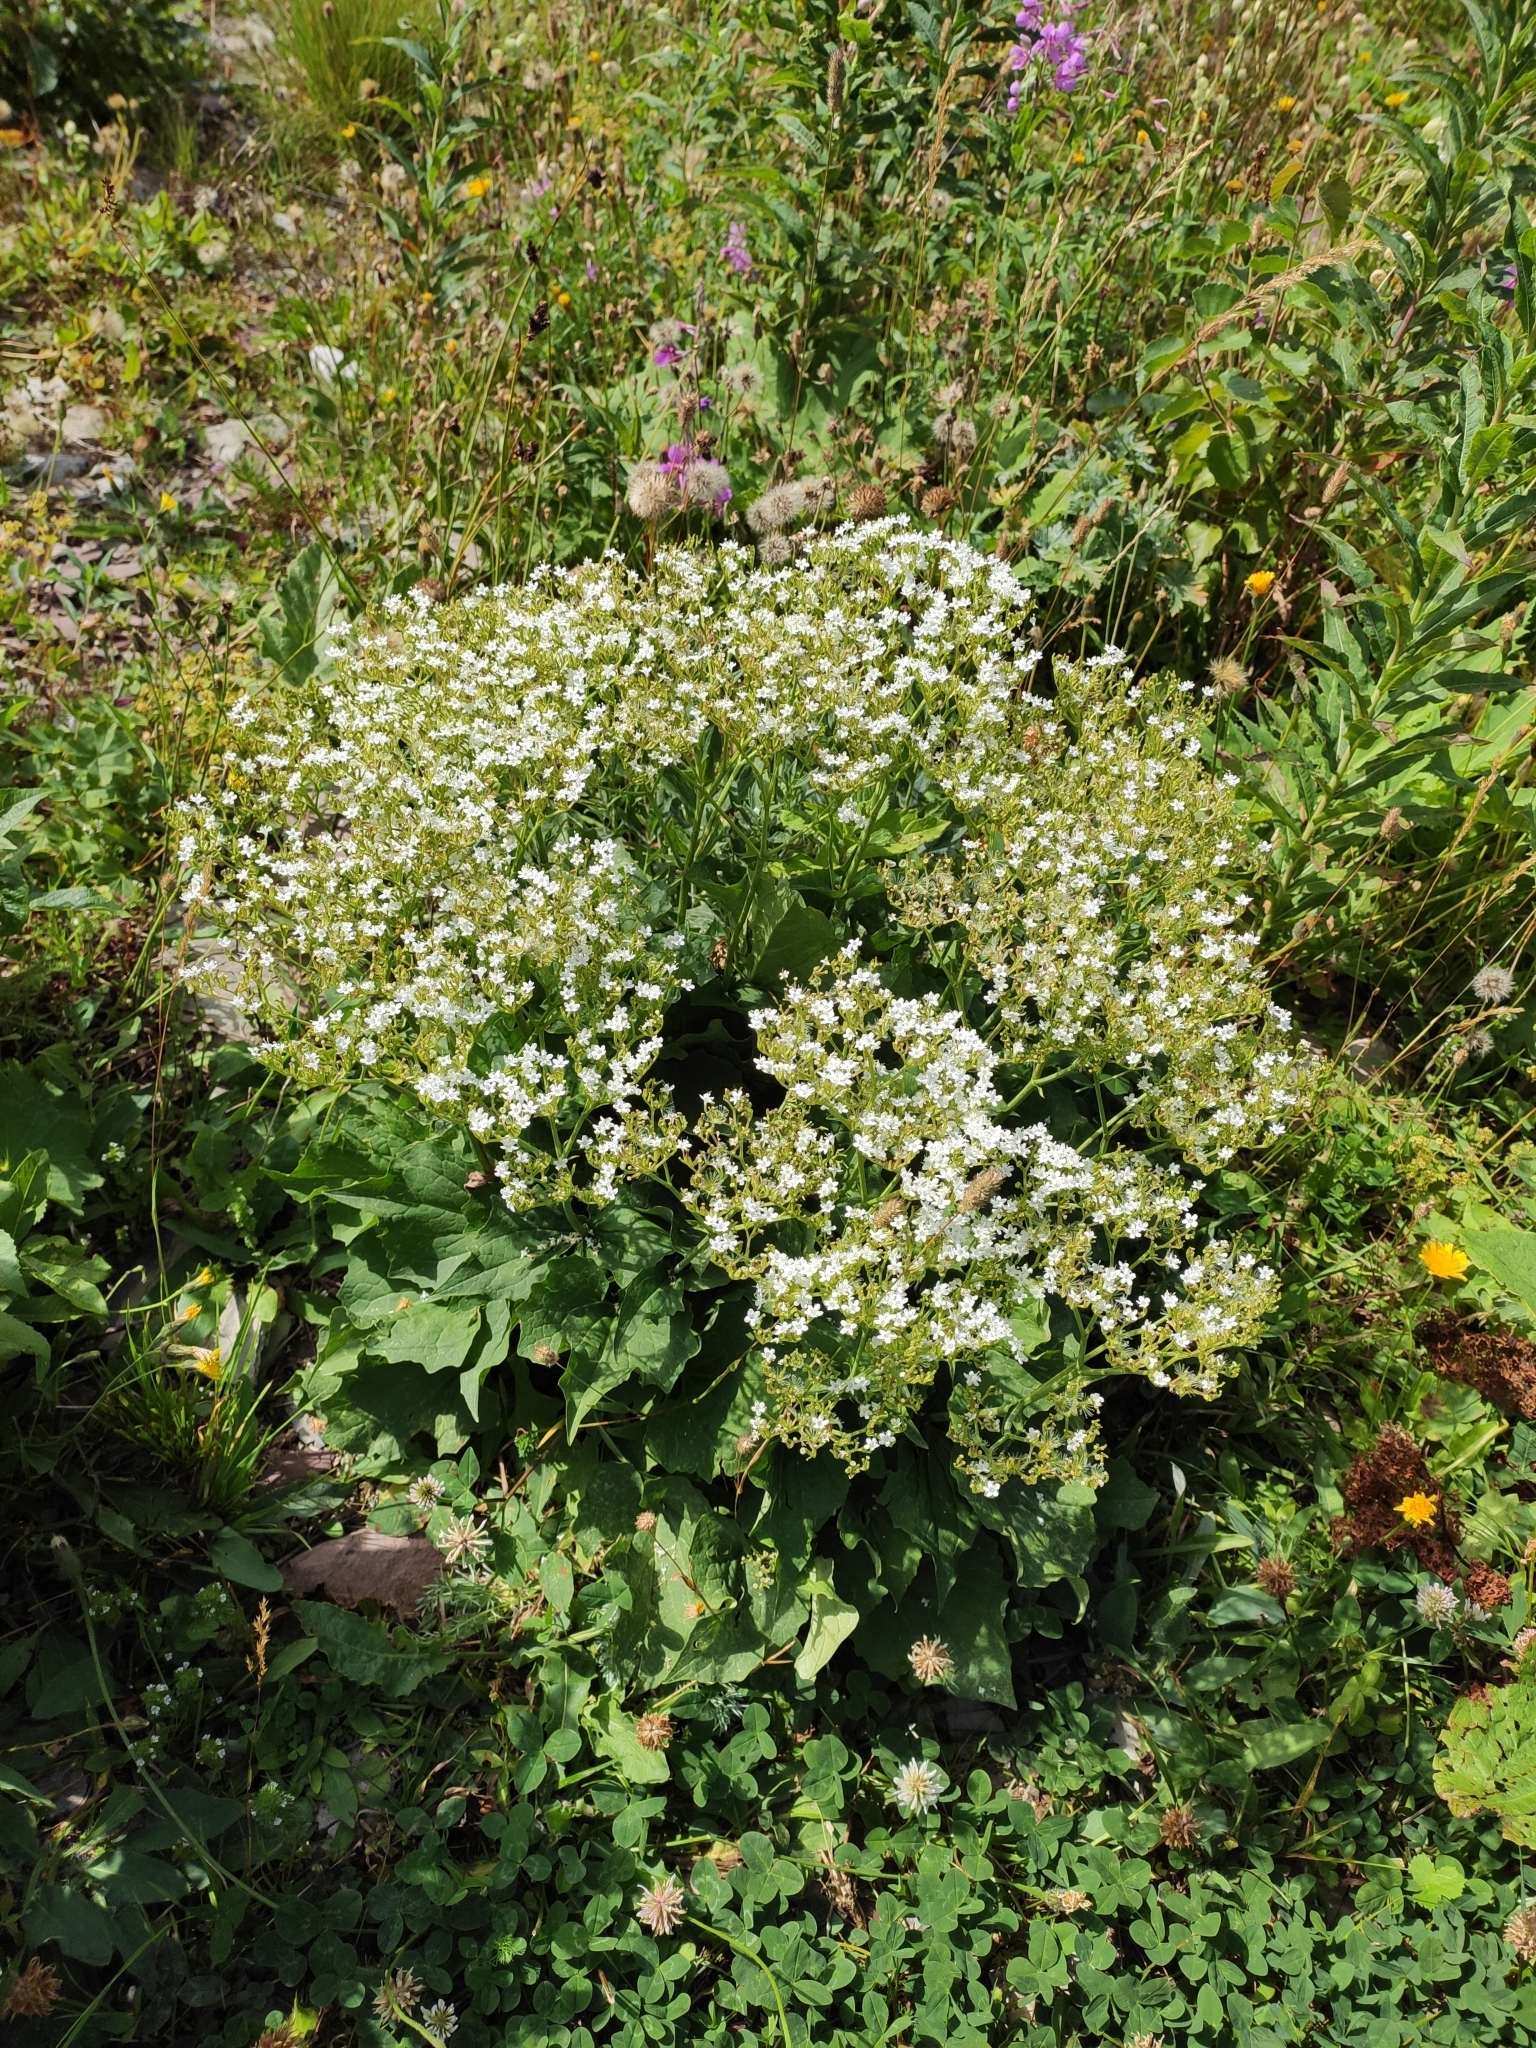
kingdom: Plantae
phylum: Tracheophyta
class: Magnoliopsida
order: Dipsacales
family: Caprifoliaceae
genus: Valeriana
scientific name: Valeriana alliariifolia
